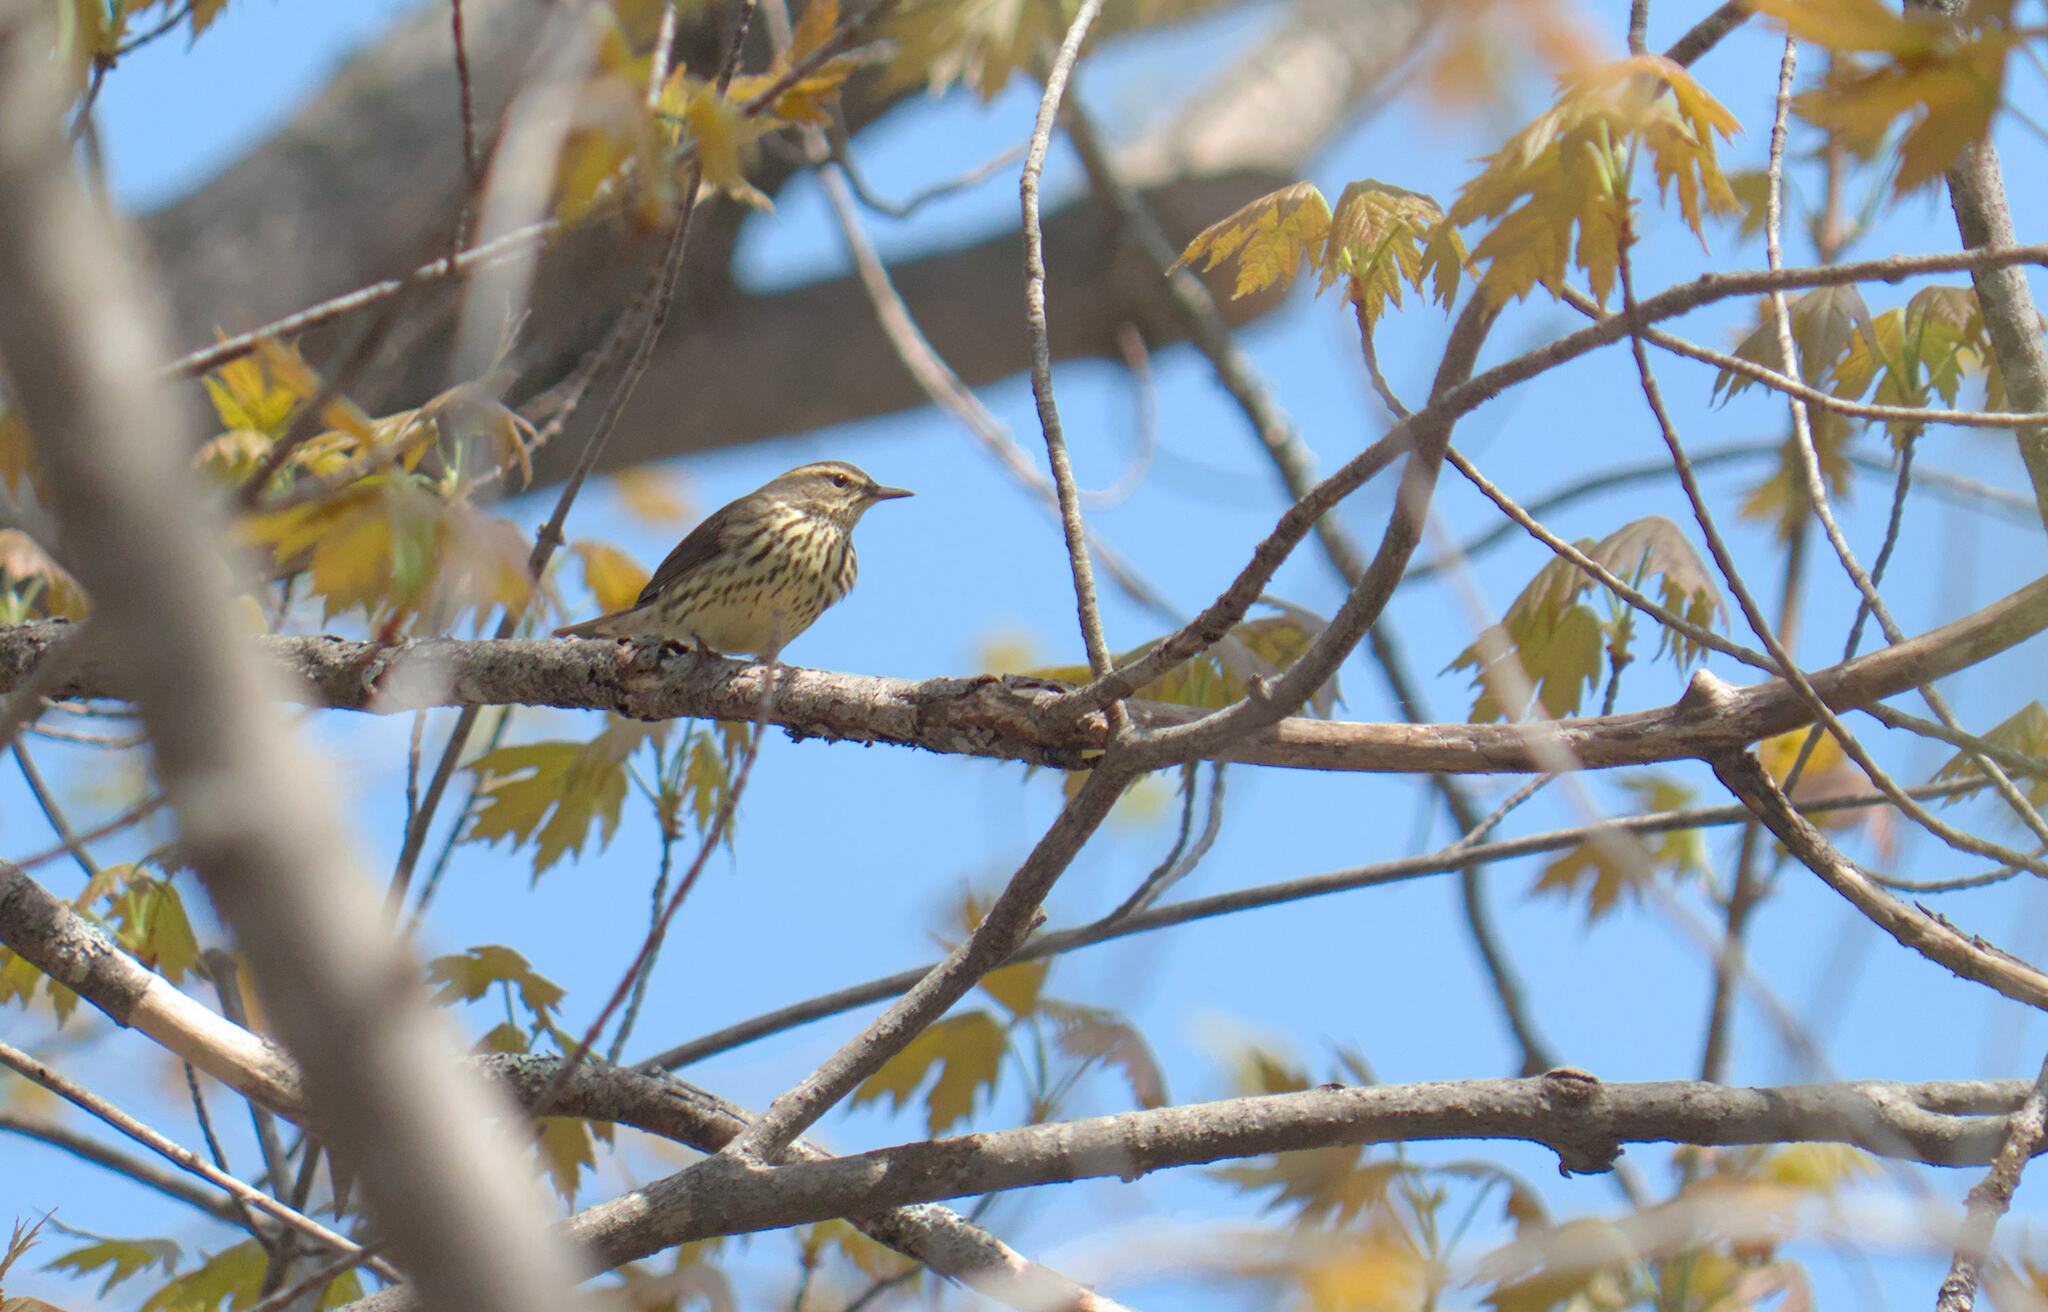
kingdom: Animalia
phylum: Chordata
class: Aves
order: Passeriformes
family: Parulidae
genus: Parkesia
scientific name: Parkesia noveboracensis
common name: Northern waterthrush
